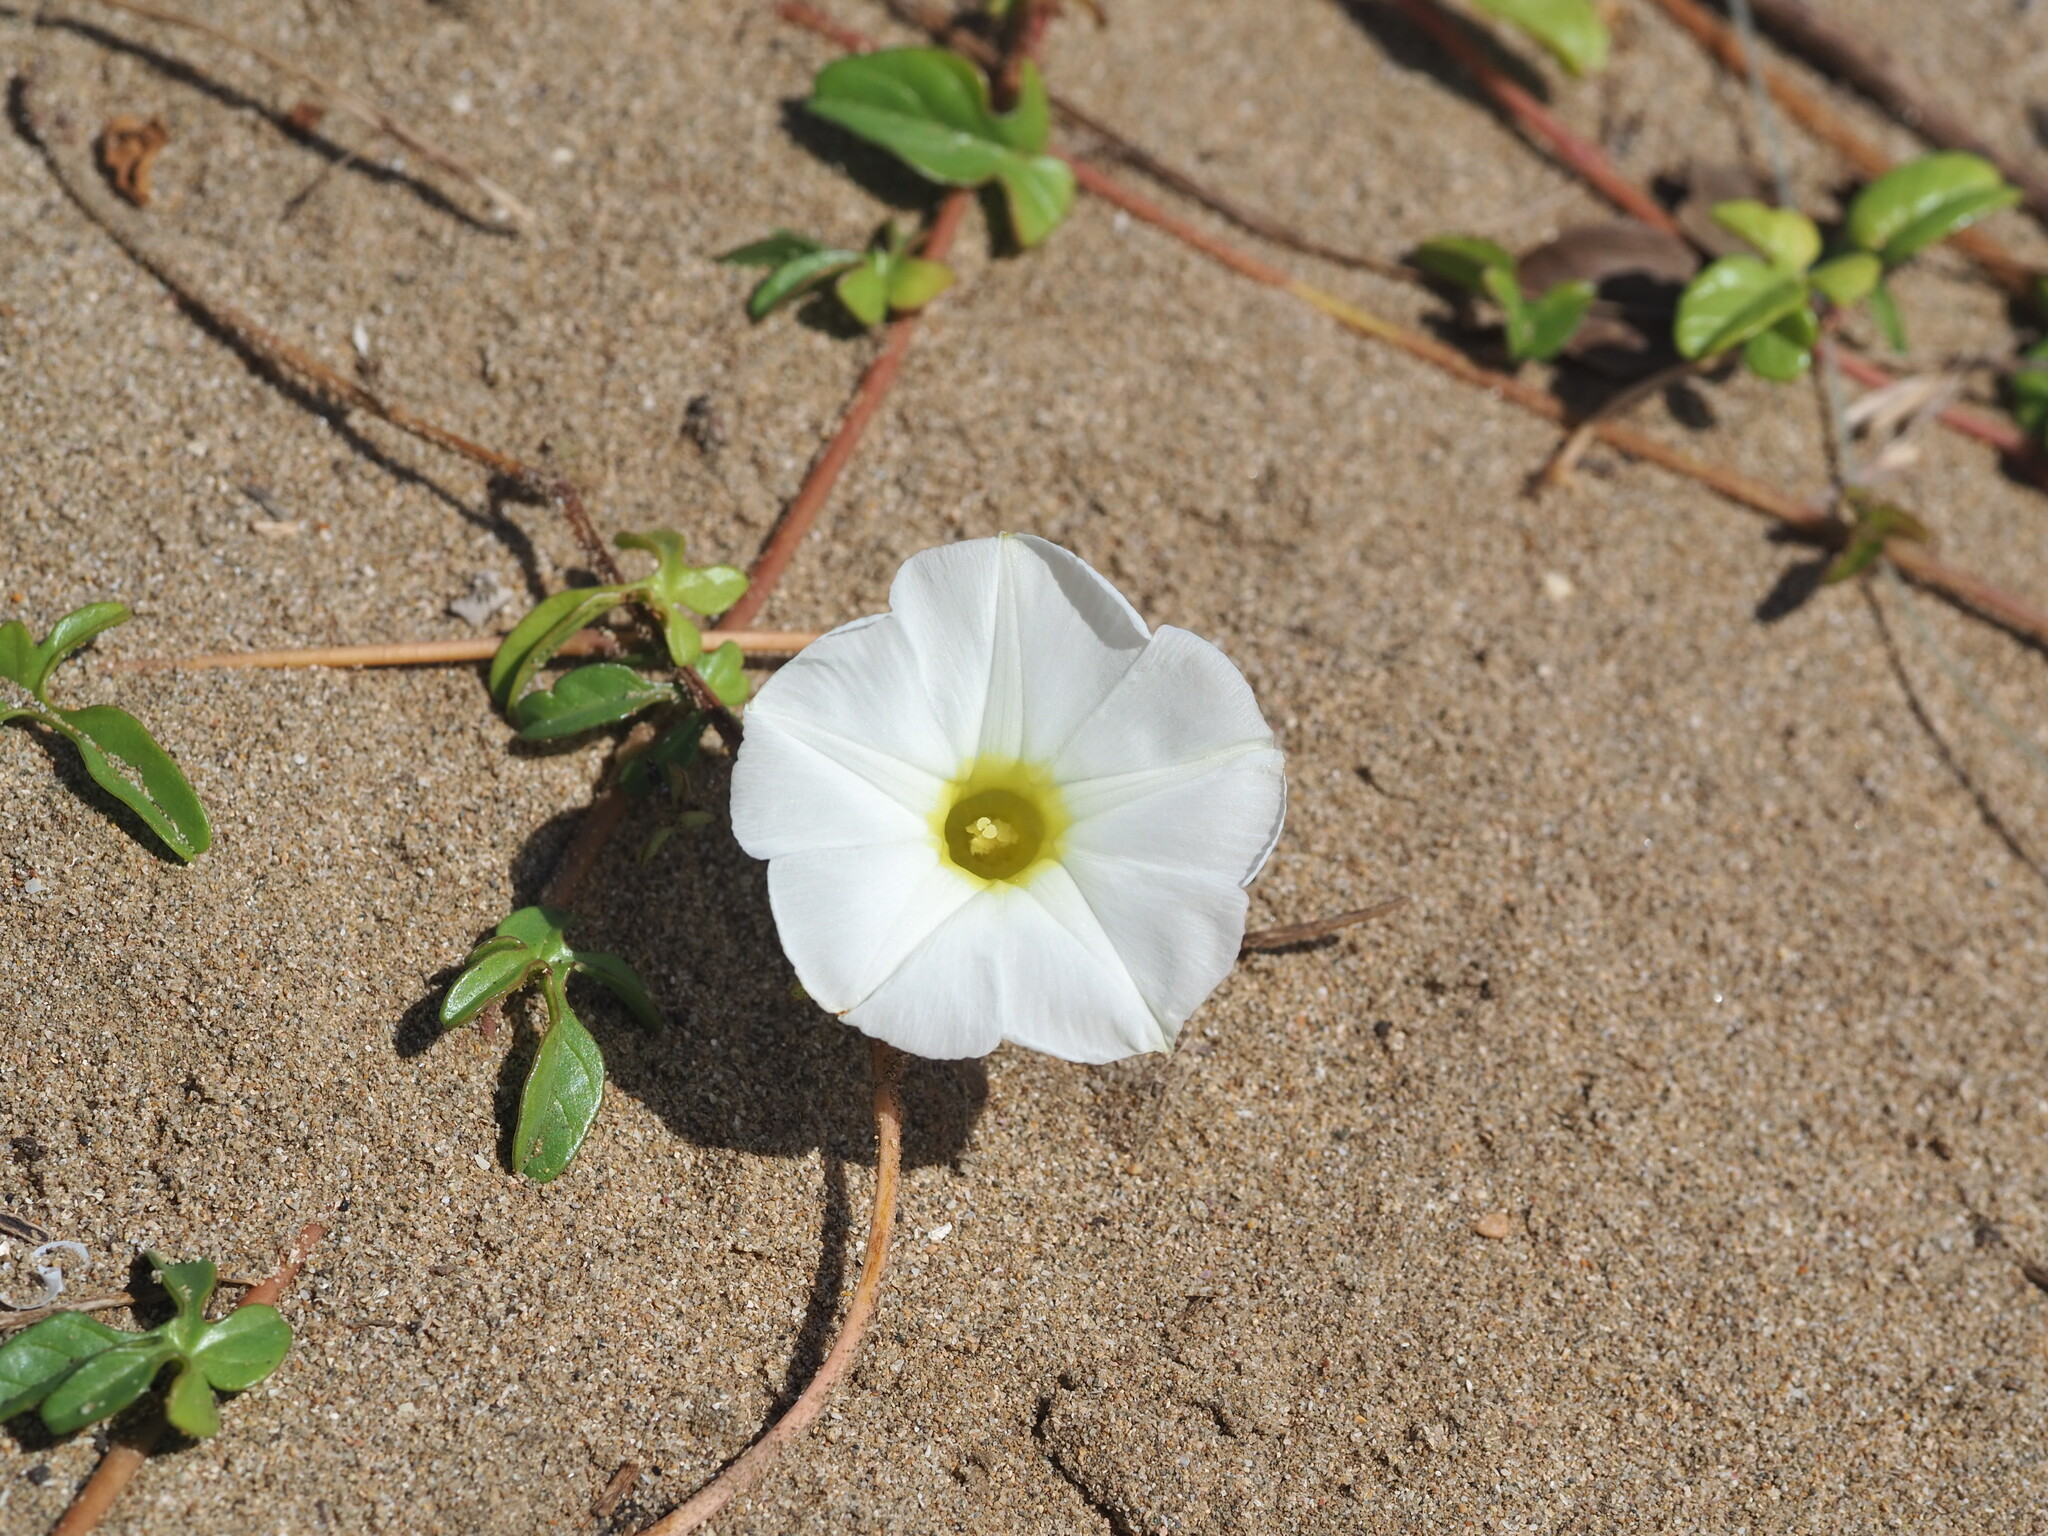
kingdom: Plantae
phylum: Tracheophyta
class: Magnoliopsida
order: Solanales
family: Convolvulaceae
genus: Ipomoea
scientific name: Ipomoea imperati
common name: Fiddle-leaf morning-glory
